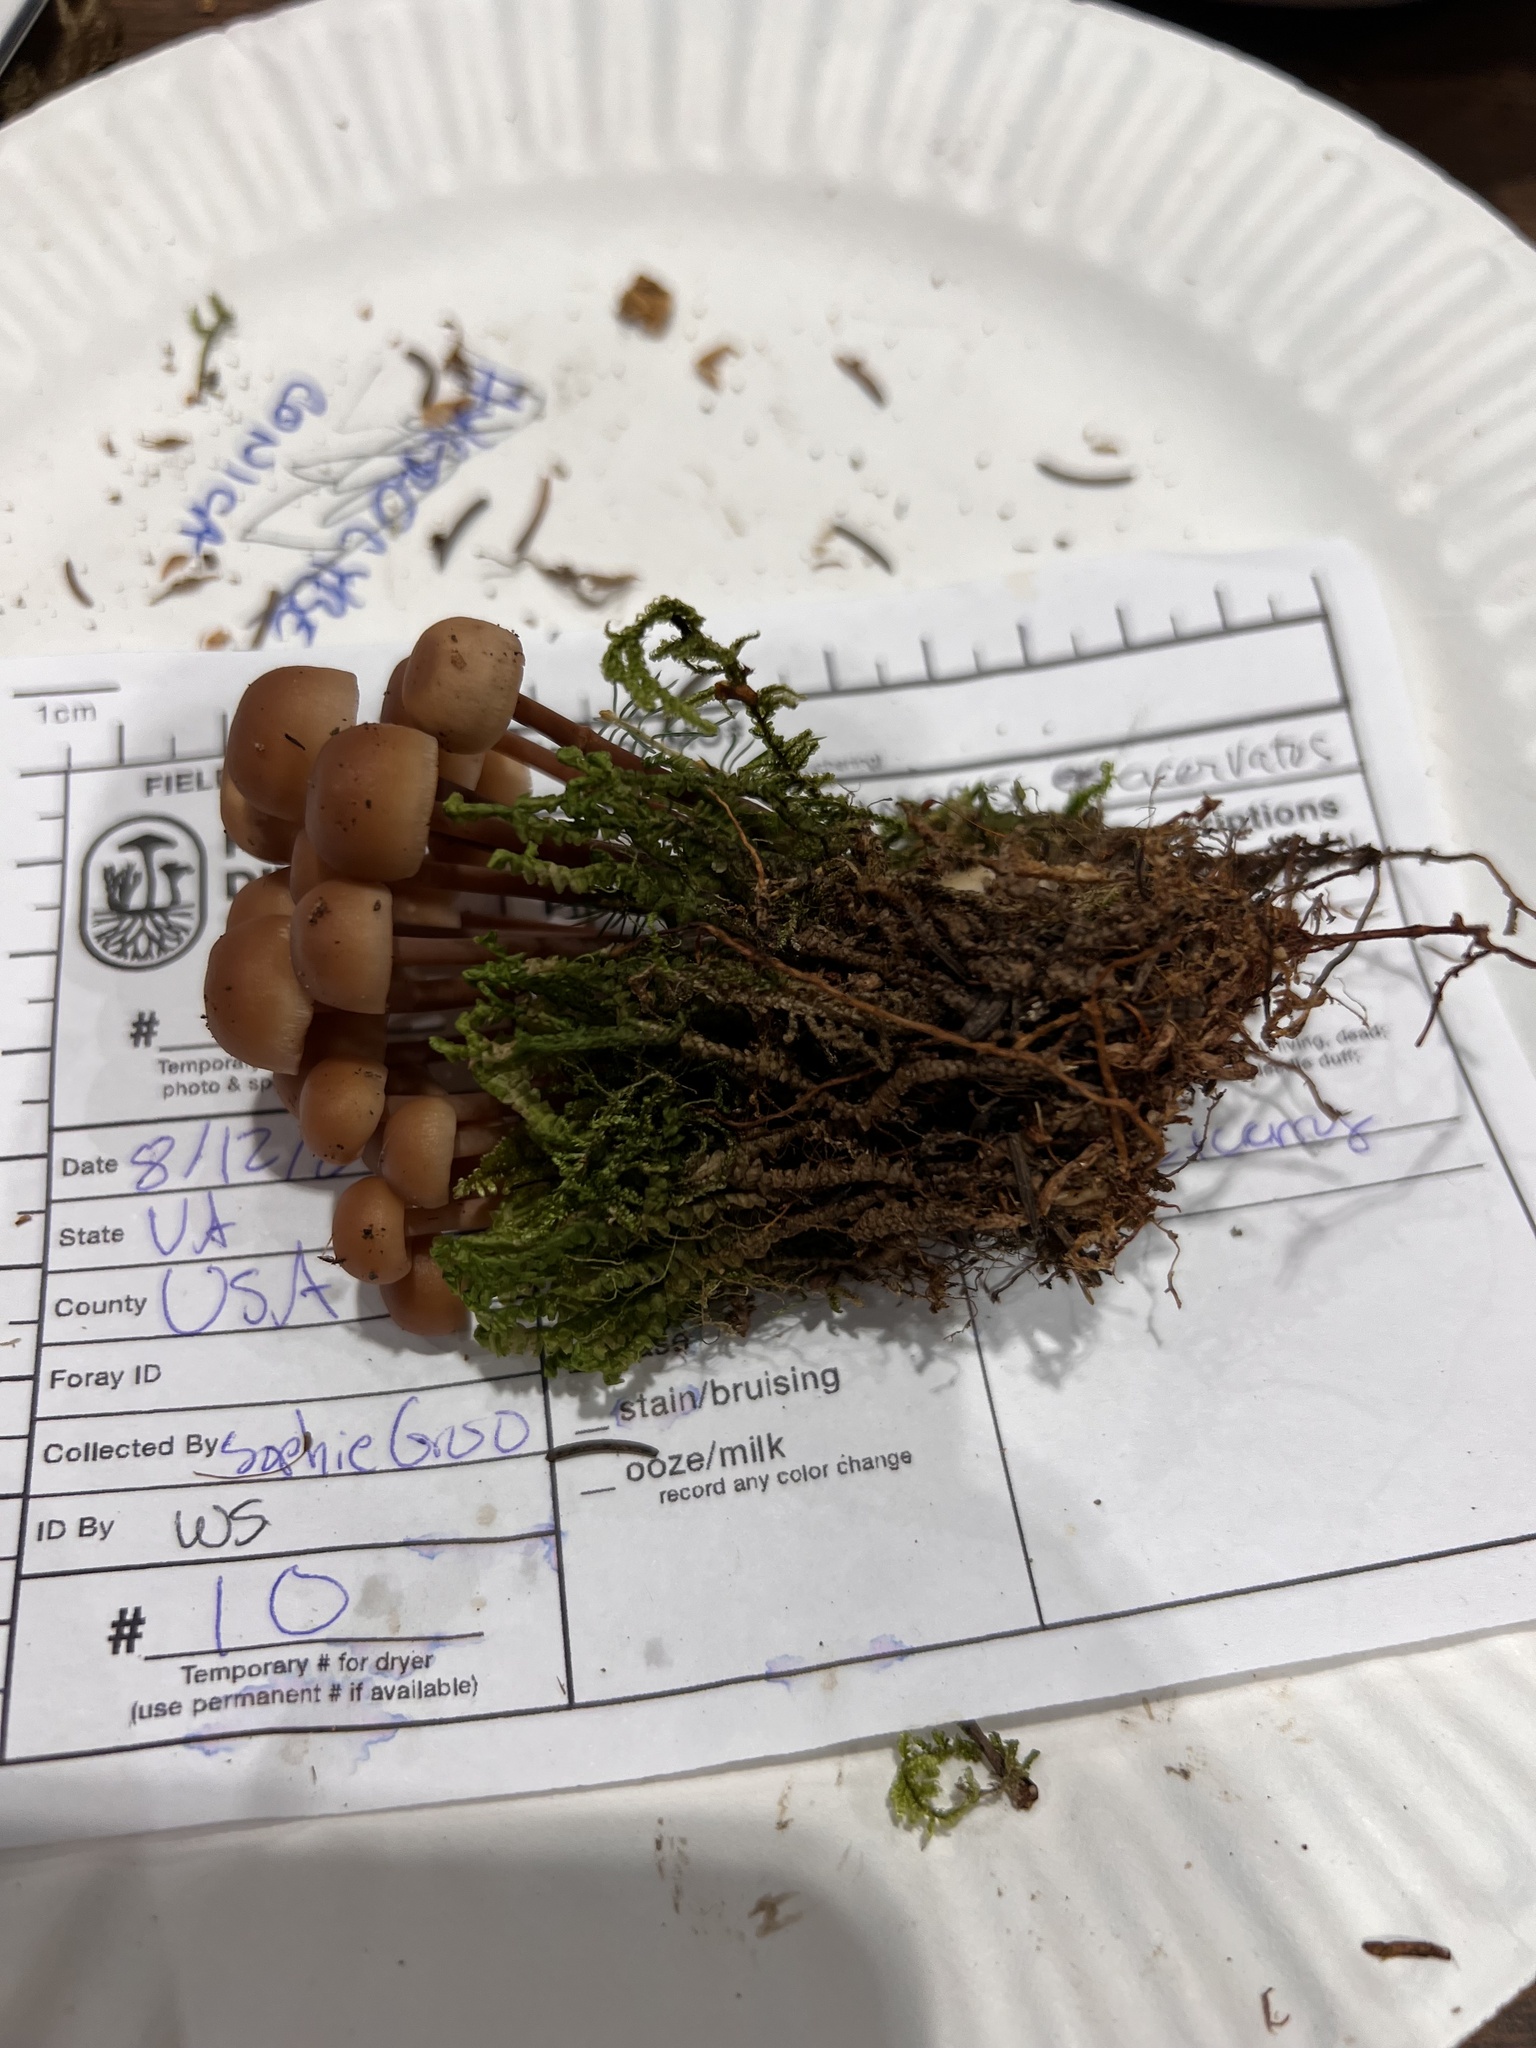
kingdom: Fungi
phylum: Basidiomycota
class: Agaricomycetes
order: Agaricales
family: Omphalotaceae
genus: Connopus
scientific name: Connopus acervatus
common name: Cluster cap
